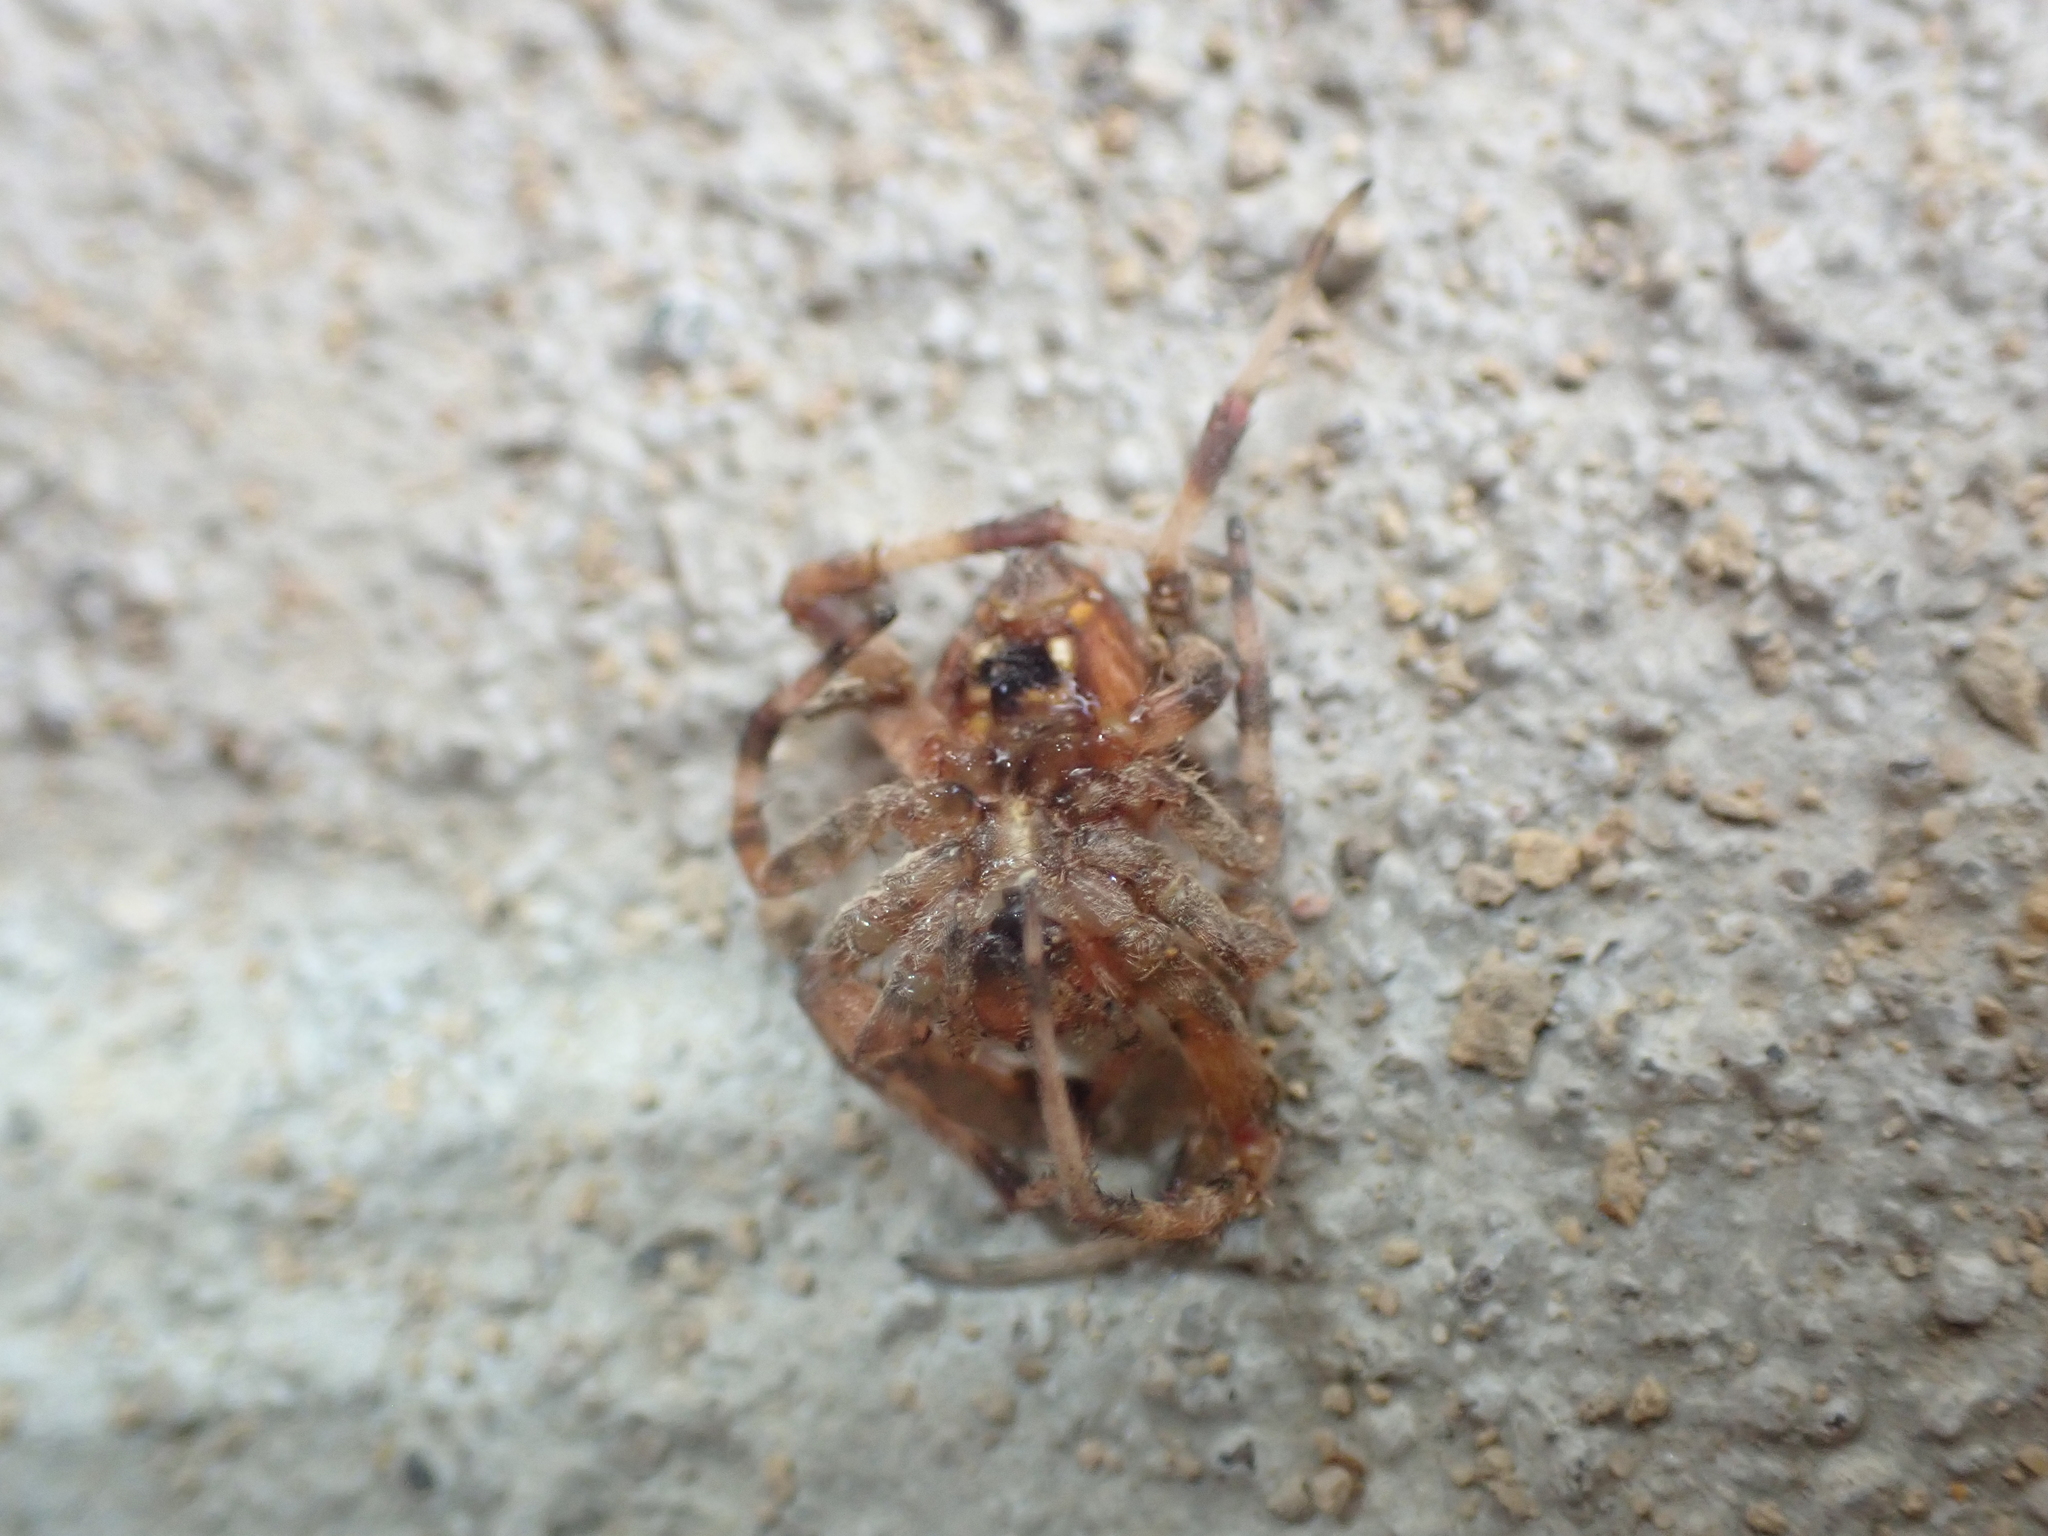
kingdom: Animalia
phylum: Arthropoda
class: Arachnida
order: Araneae
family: Araneidae
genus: Neoscona
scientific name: Neoscona crucifera
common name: Spotted orbweaver
